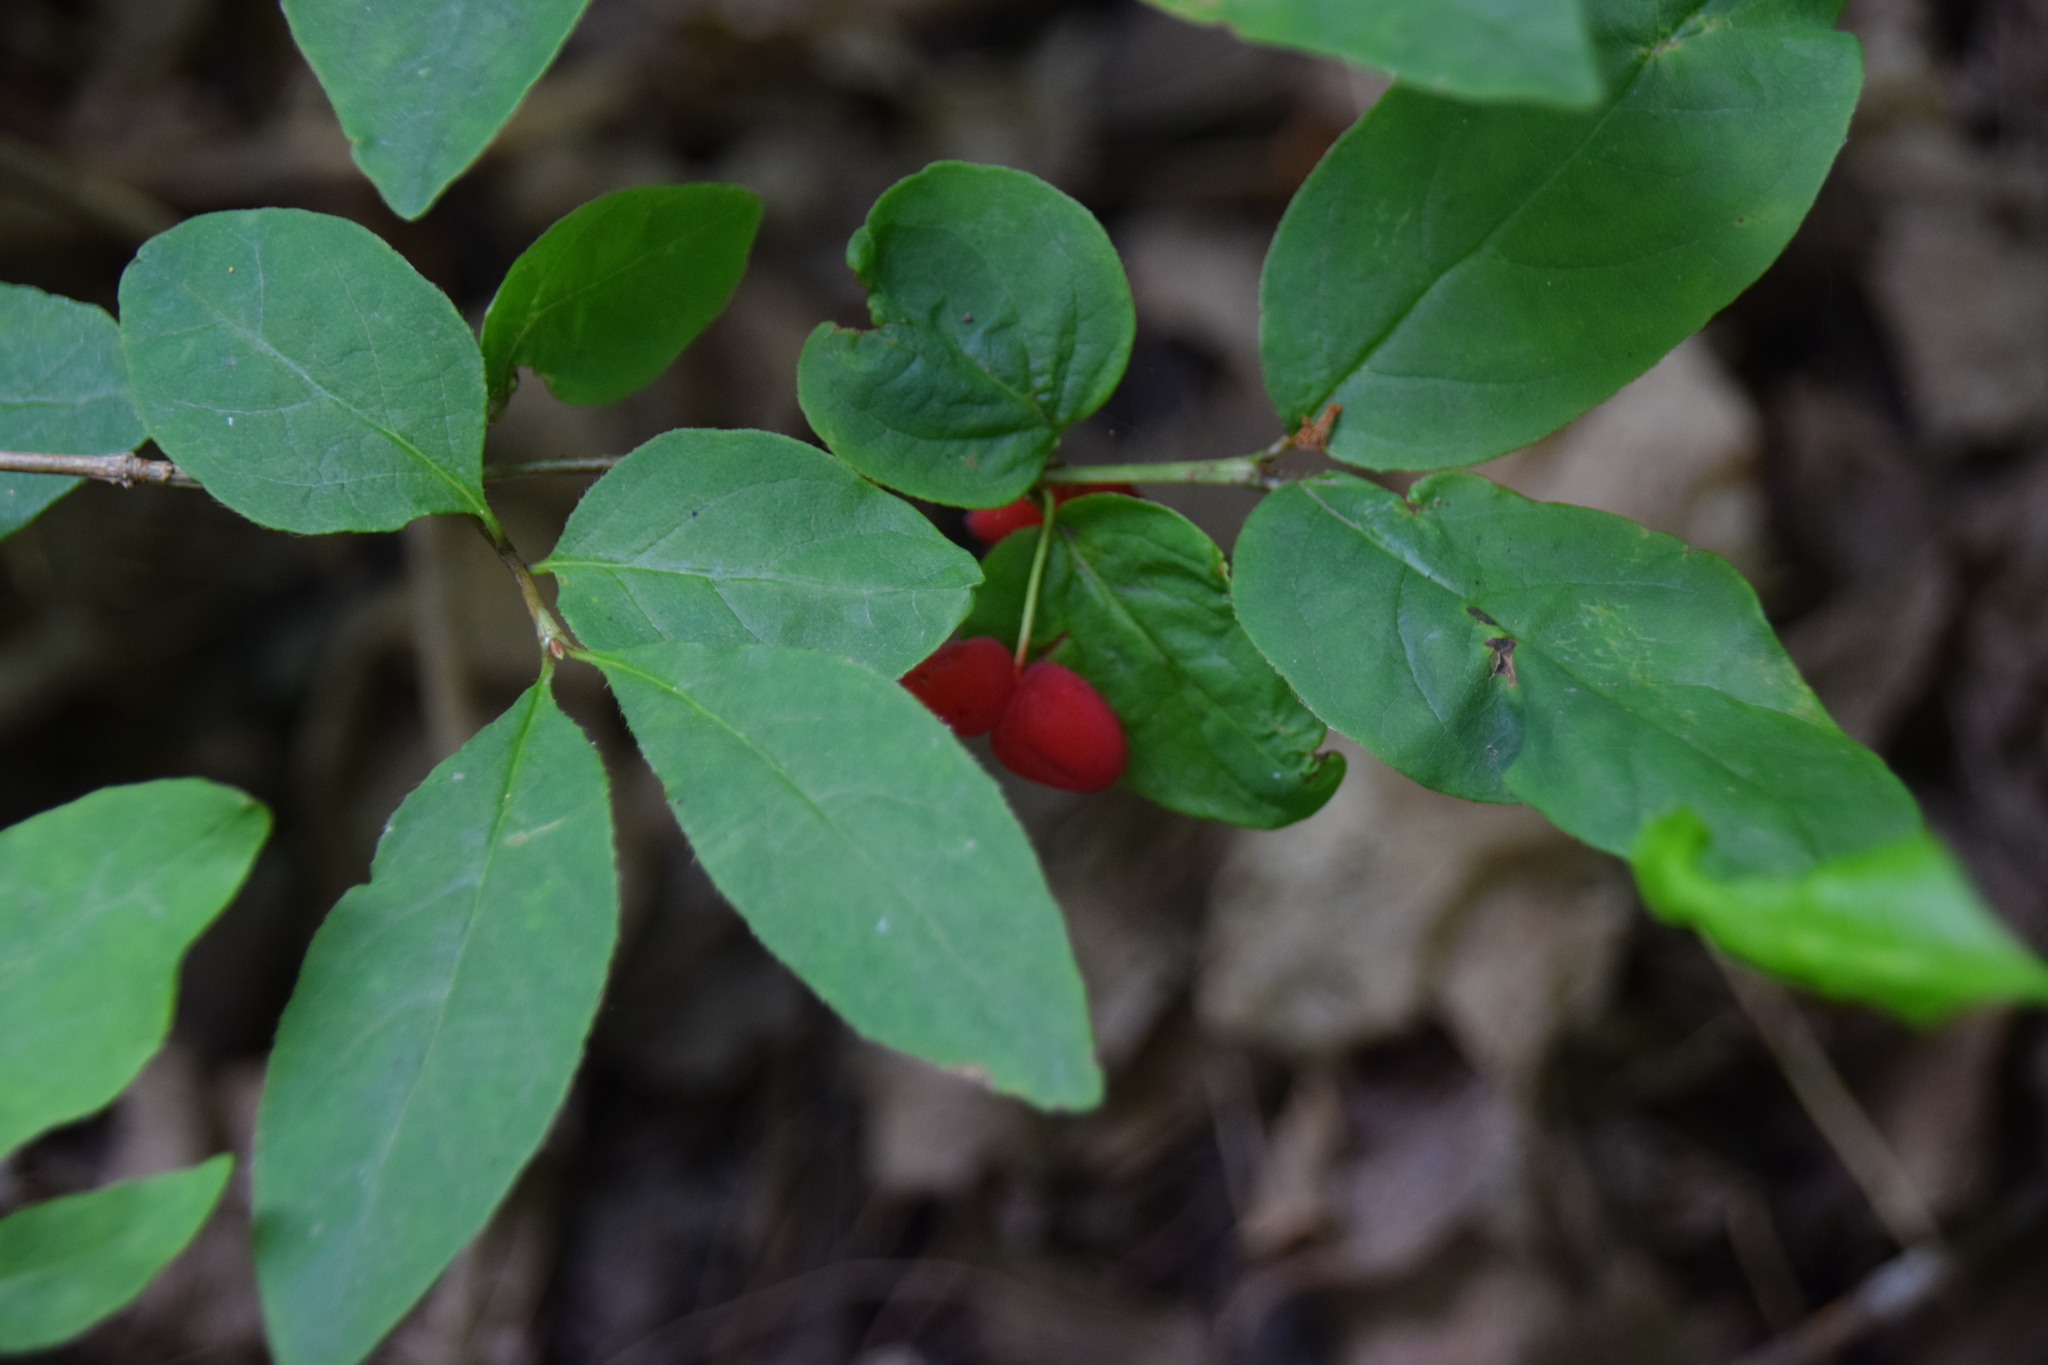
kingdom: Plantae
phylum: Tracheophyta
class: Magnoliopsida
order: Dipsacales
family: Caprifoliaceae
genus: Lonicera
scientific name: Lonicera canadensis
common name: American fly-honeysuckle
